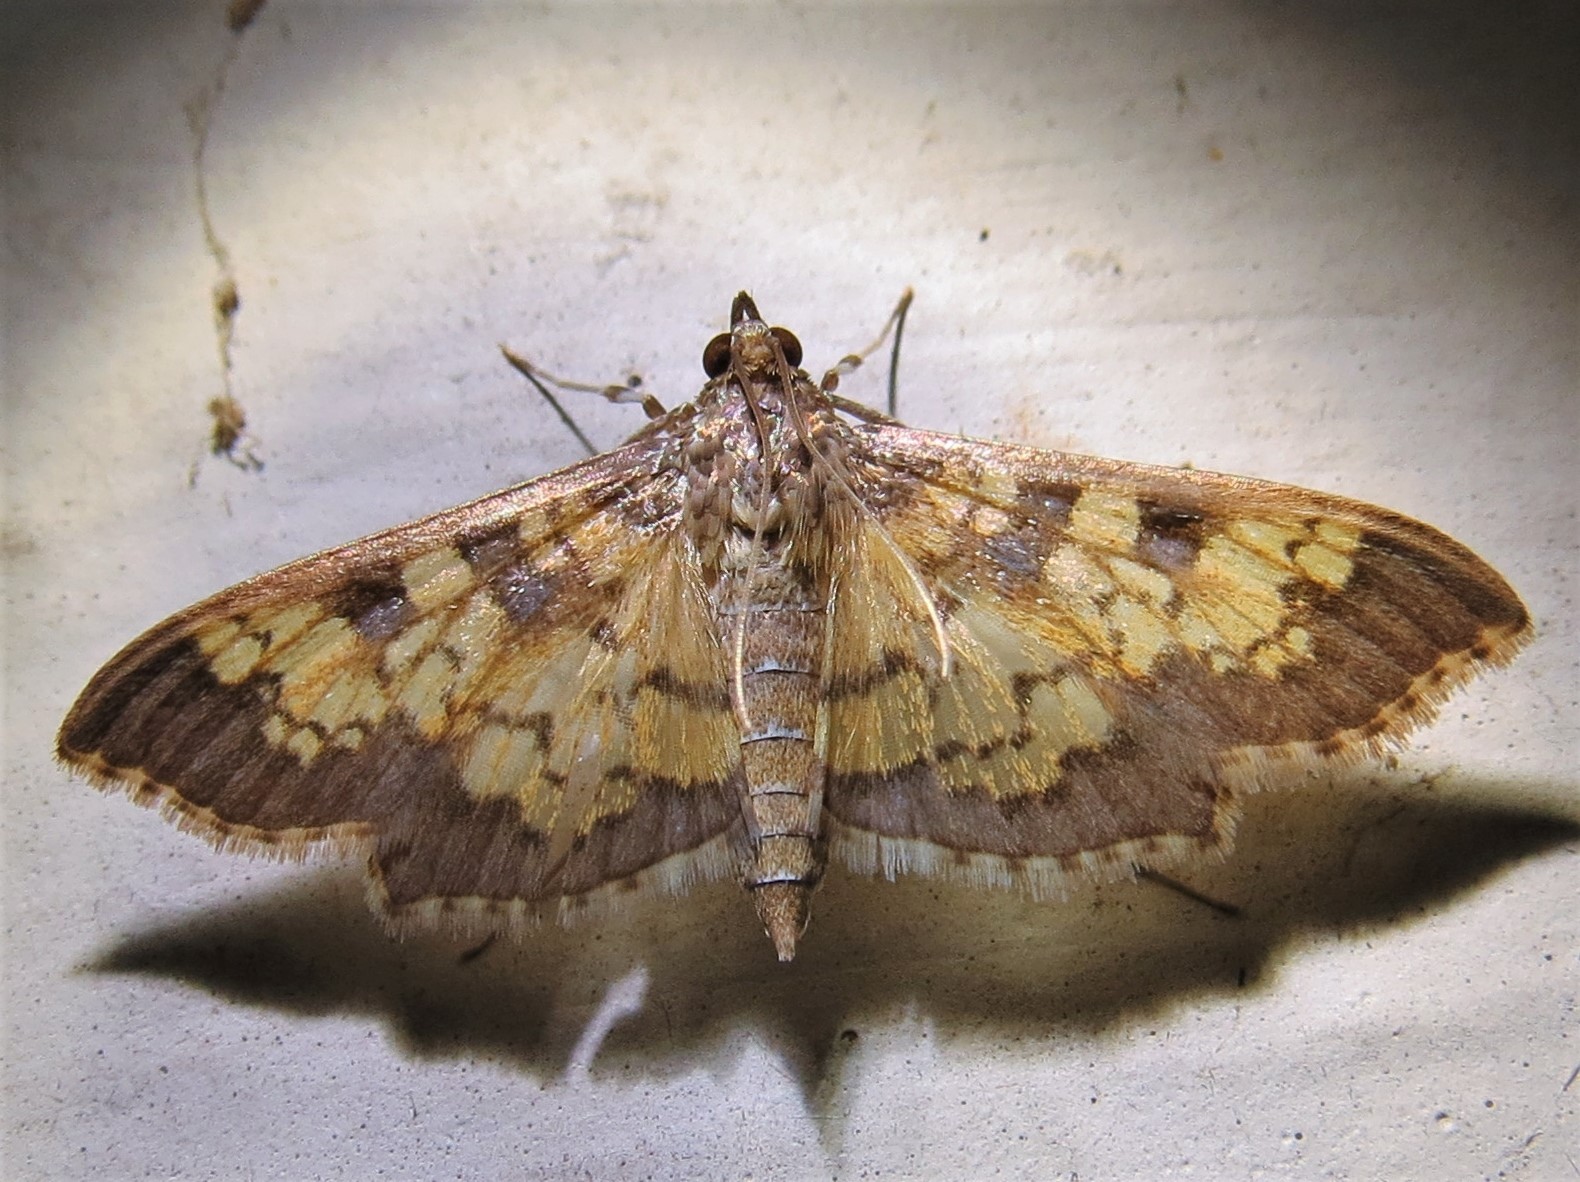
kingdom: Animalia
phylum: Arthropoda
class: Insecta
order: Lepidoptera
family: Crambidae
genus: Cryptographis
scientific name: Cryptographis elealis
